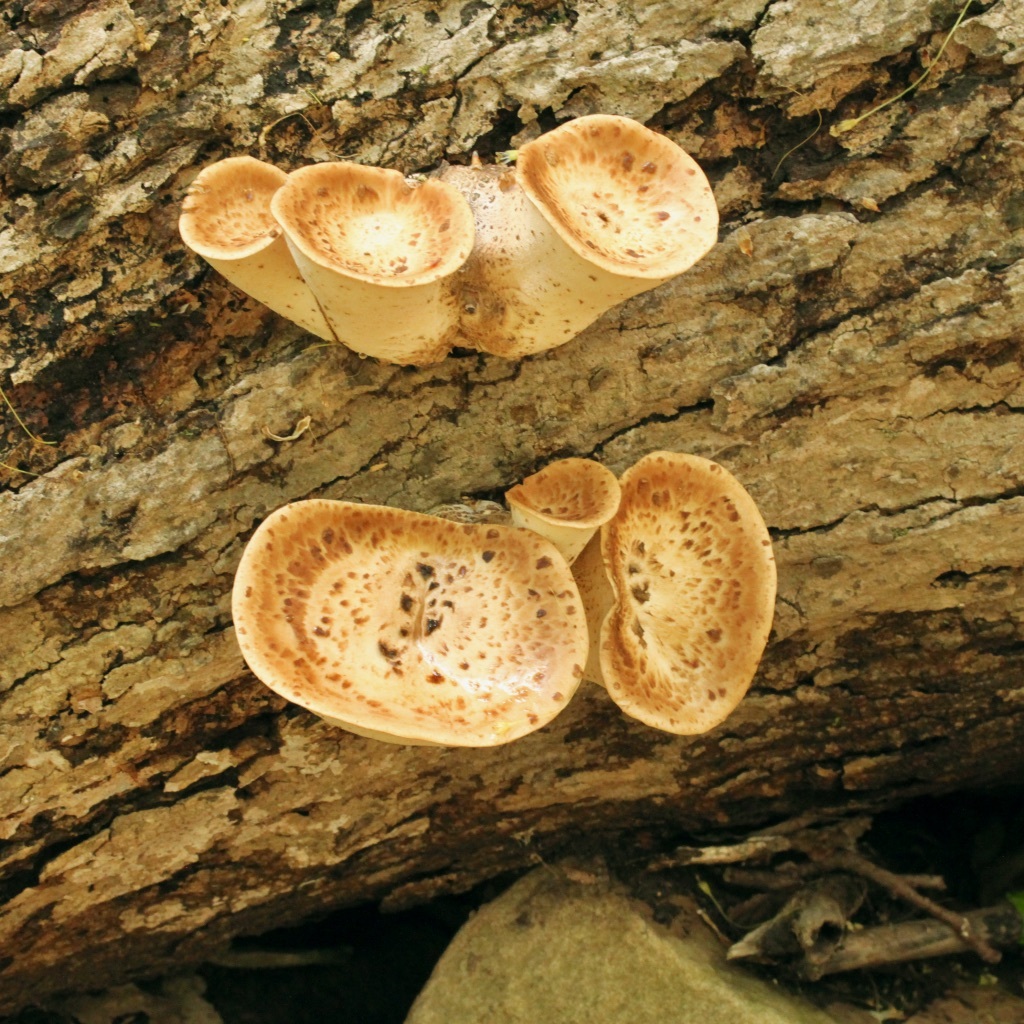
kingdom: Fungi
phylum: Basidiomycota
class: Agaricomycetes
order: Polyporales
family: Polyporaceae
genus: Cerioporus
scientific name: Cerioporus squamosus
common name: Dryad's saddle
